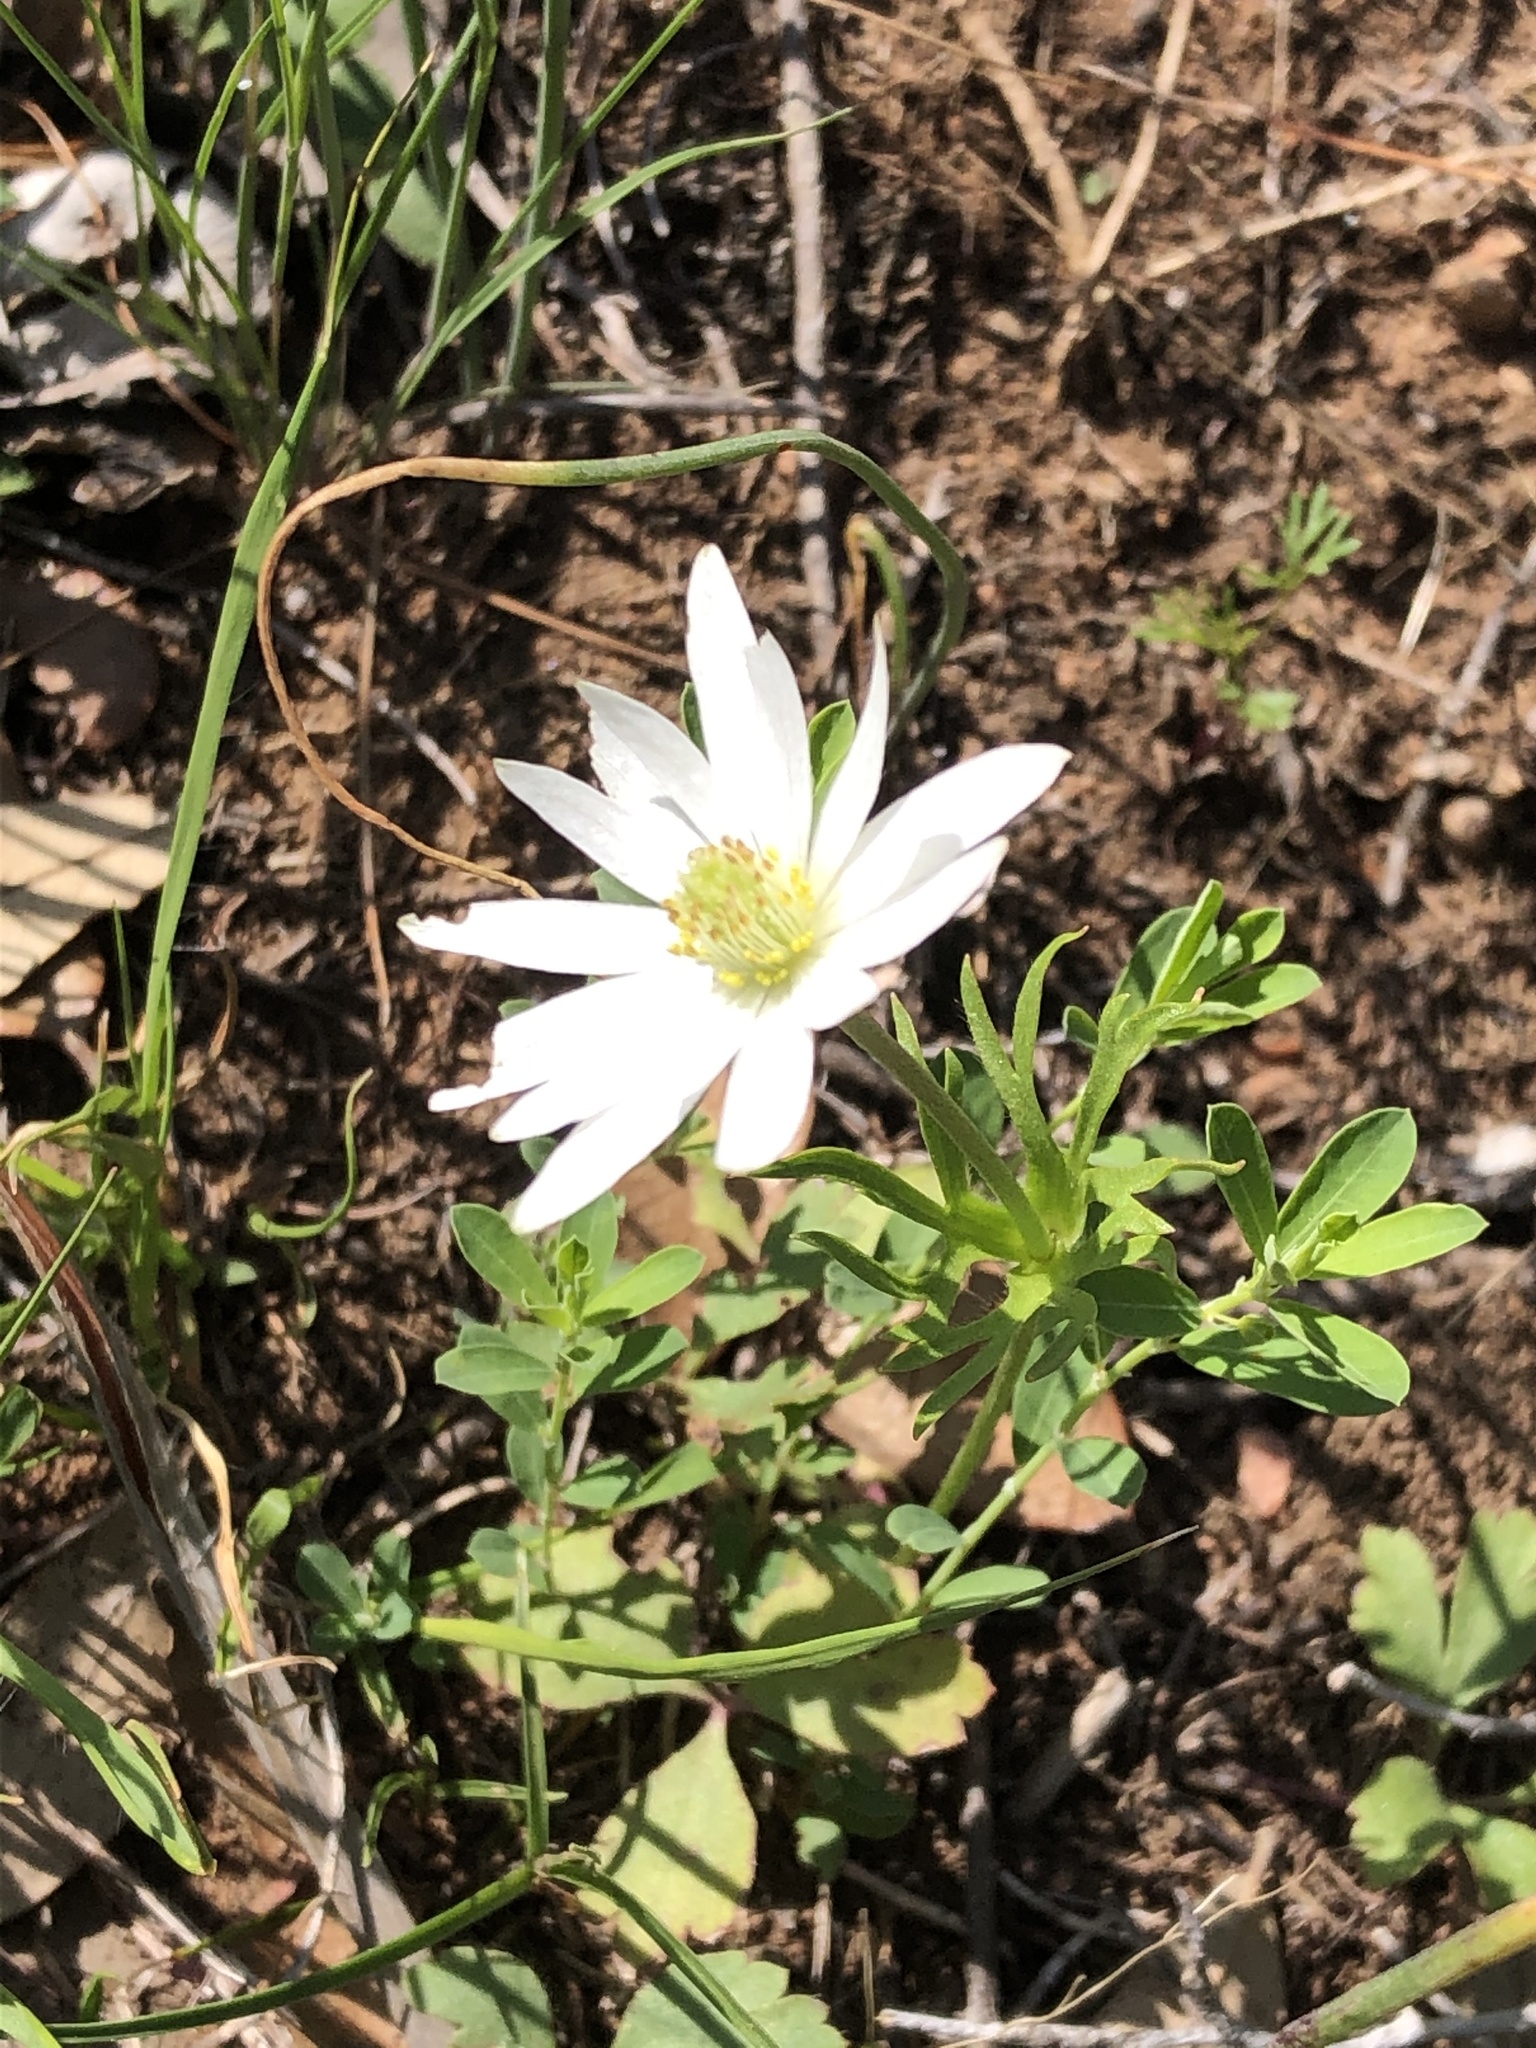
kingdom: Plantae
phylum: Tracheophyta
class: Magnoliopsida
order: Ranunculales
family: Ranunculaceae
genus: Anemone
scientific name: Anemone berlandieri
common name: Ten-petal anemone
